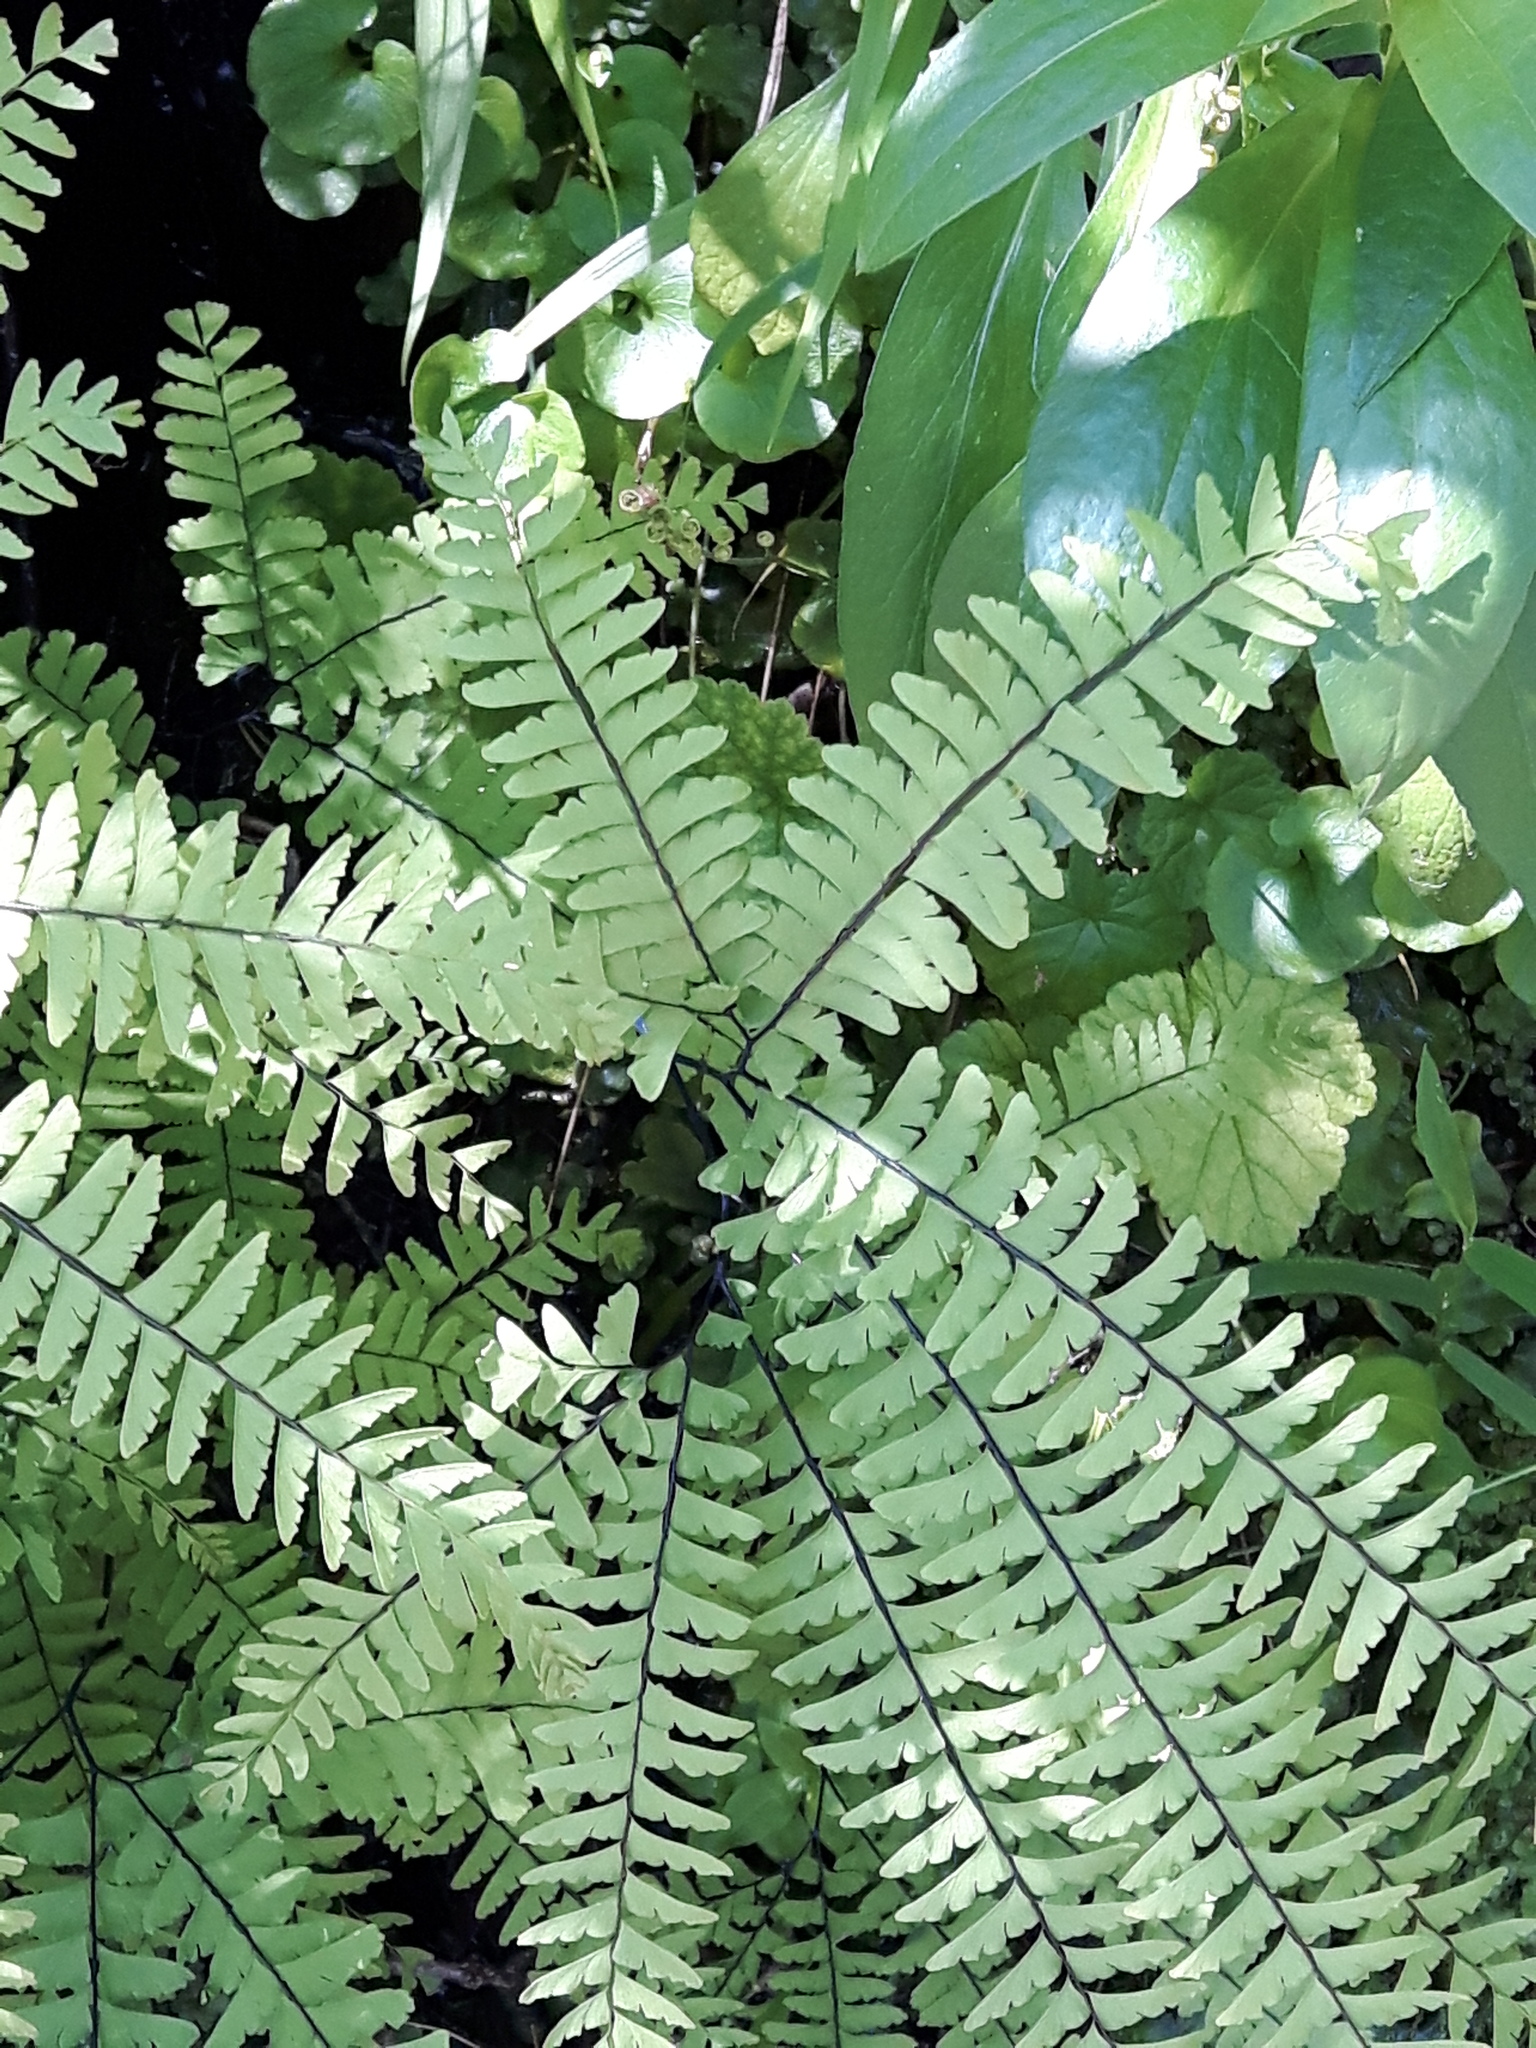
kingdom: Plantae
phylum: Tracheophyta
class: Polypodiopsida
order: Polypodiales
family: Pteridaceae
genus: Adiantum
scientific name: Adiantum aleuticum
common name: Aleutian maidenhair fern
